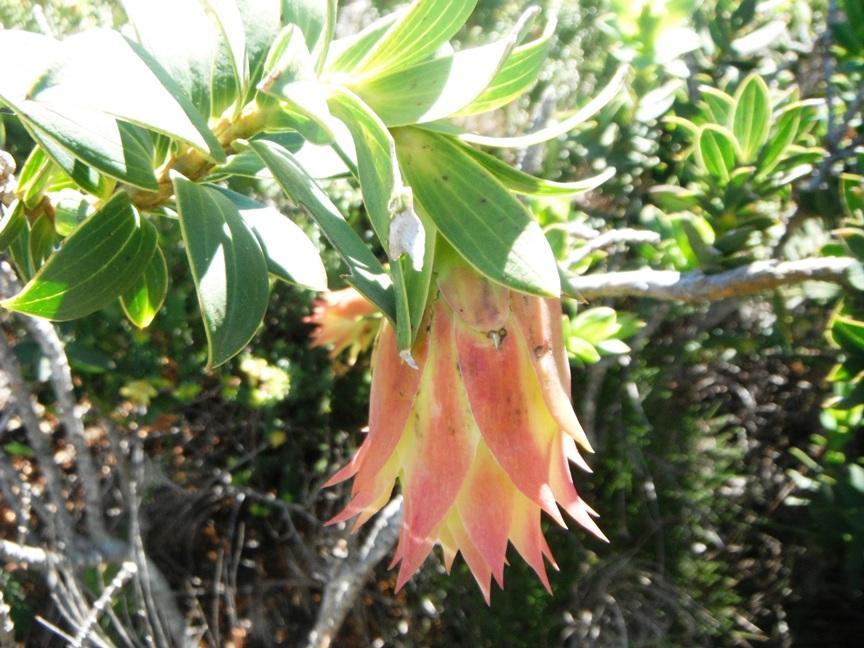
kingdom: Plantae
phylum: Tracheophyta
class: Magnoliopsida
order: Fabales
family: Fabaceae
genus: Liparia
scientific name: Liparia splendens
